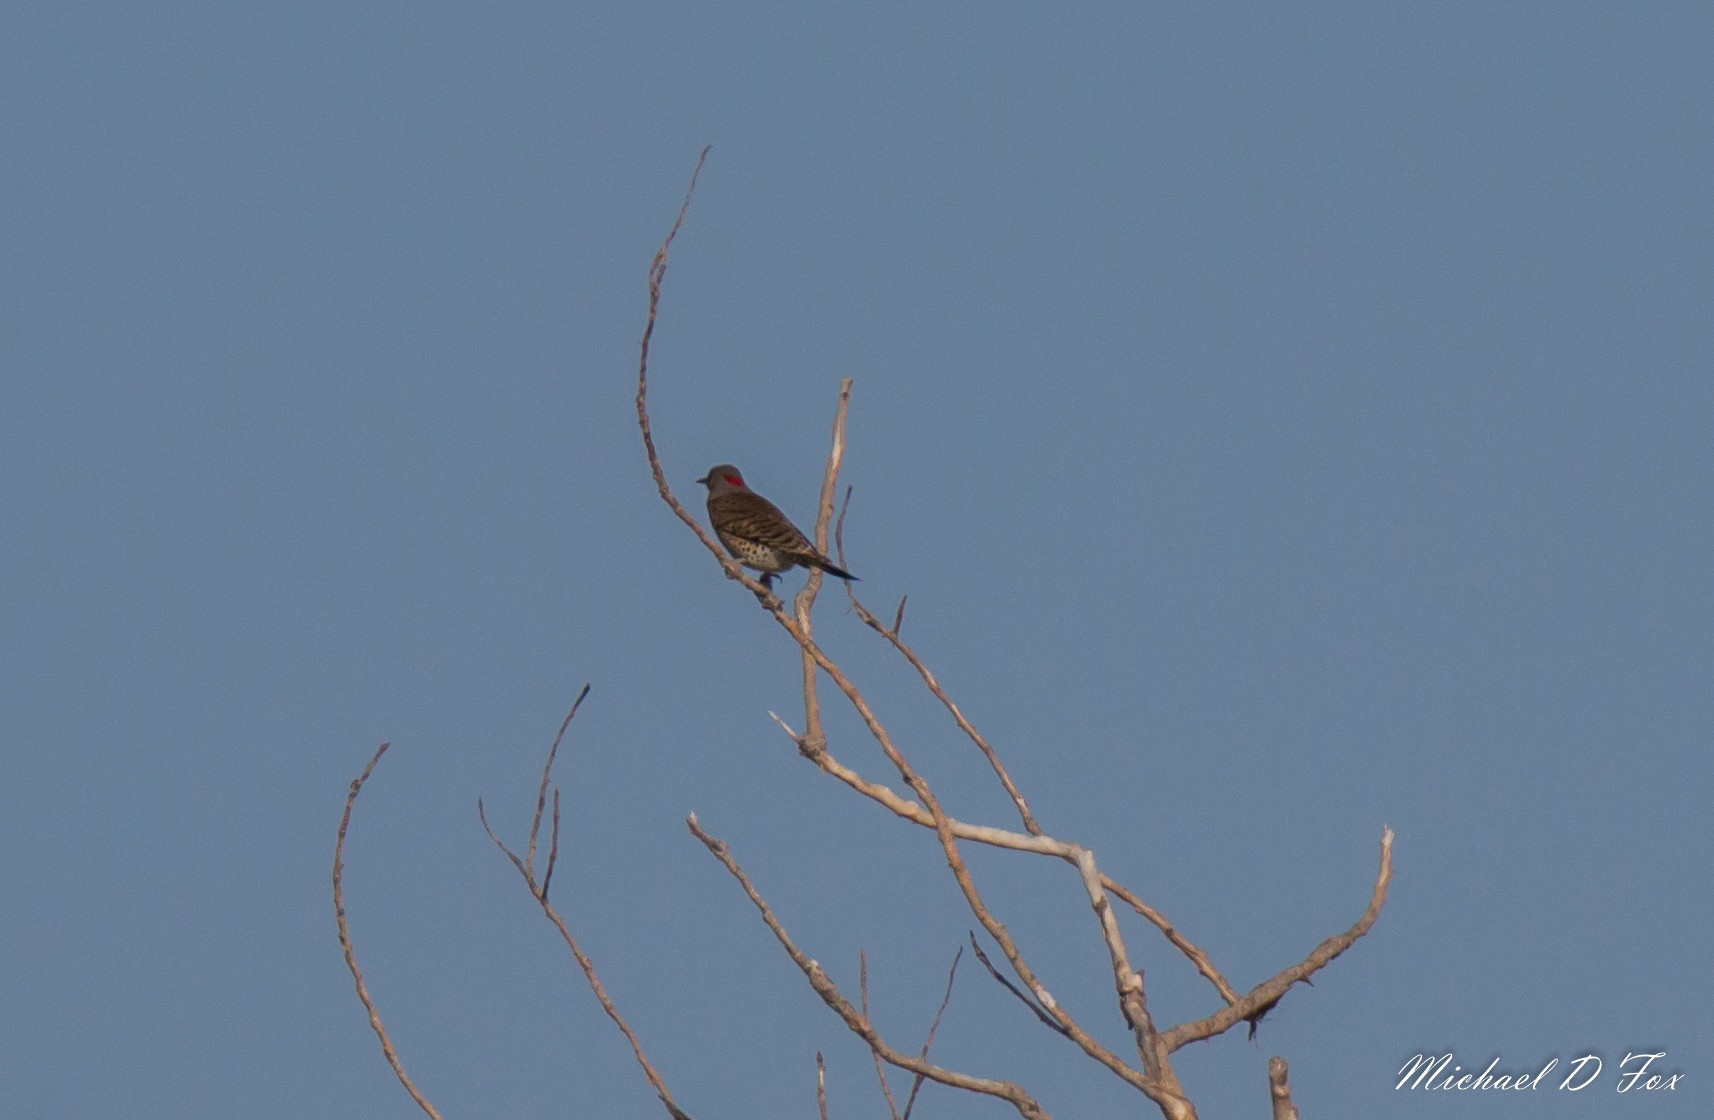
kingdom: Animalia
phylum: Chordata
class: Aves
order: Piciformes
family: Picidae
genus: Colaptes
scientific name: Colaptes auratus
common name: Northern flicker
